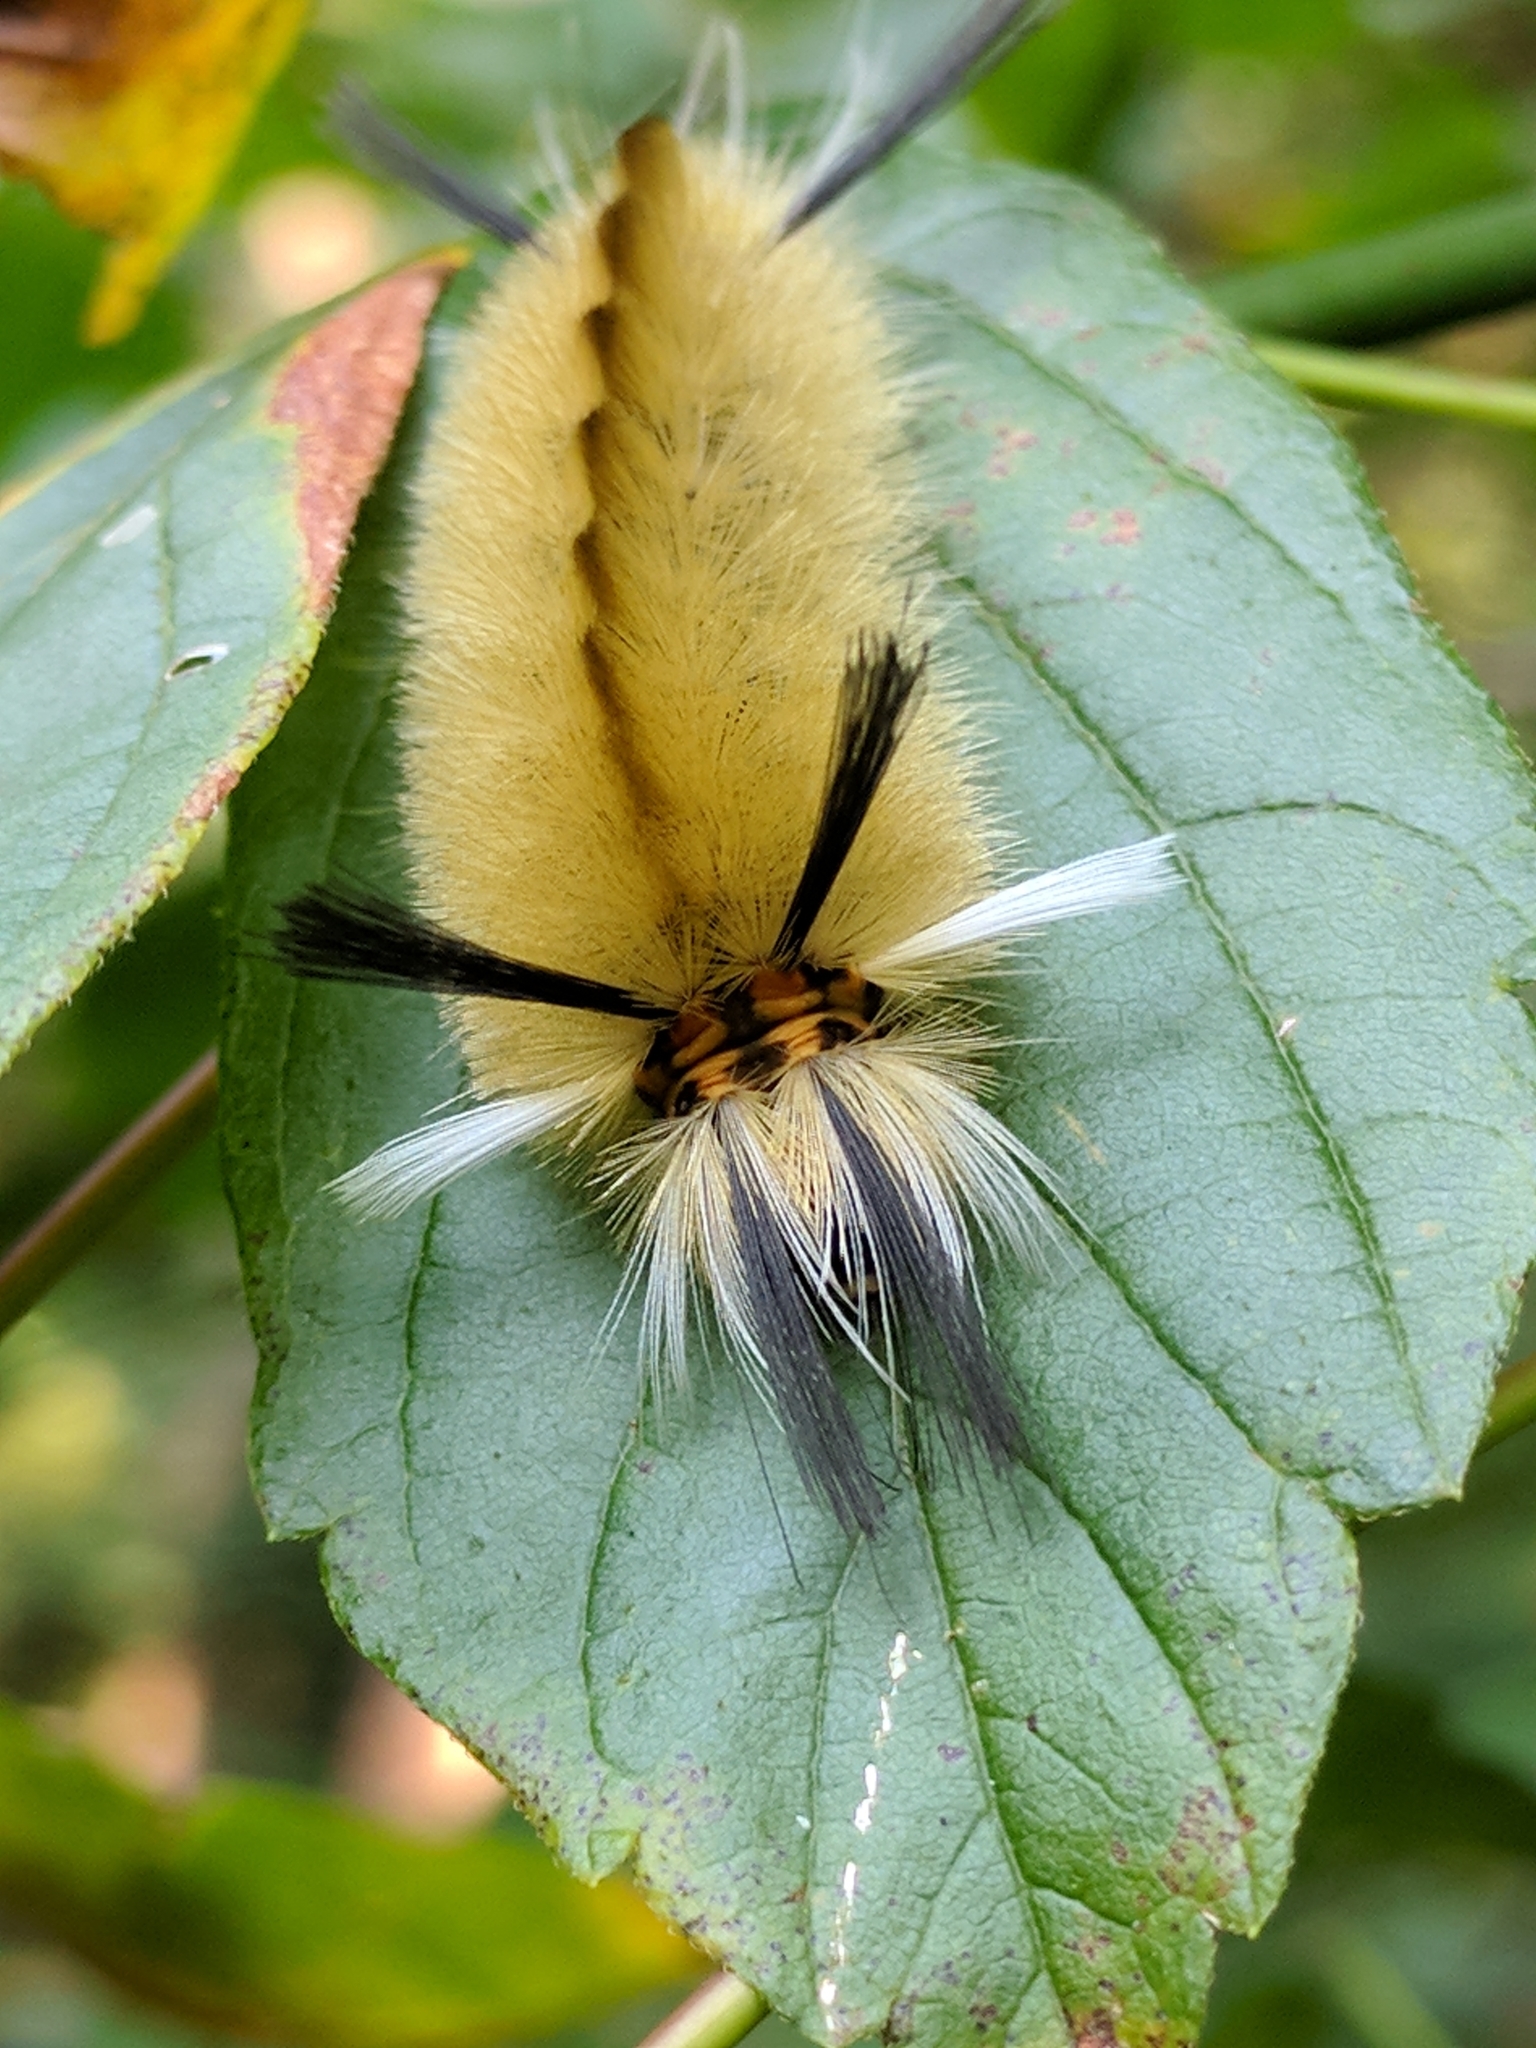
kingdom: Animalia
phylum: Arthropoda
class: Insecta
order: Lepidoptera
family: Erebidae
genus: Halysidota
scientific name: Halysidota tessellaris
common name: Banded tussock moth
